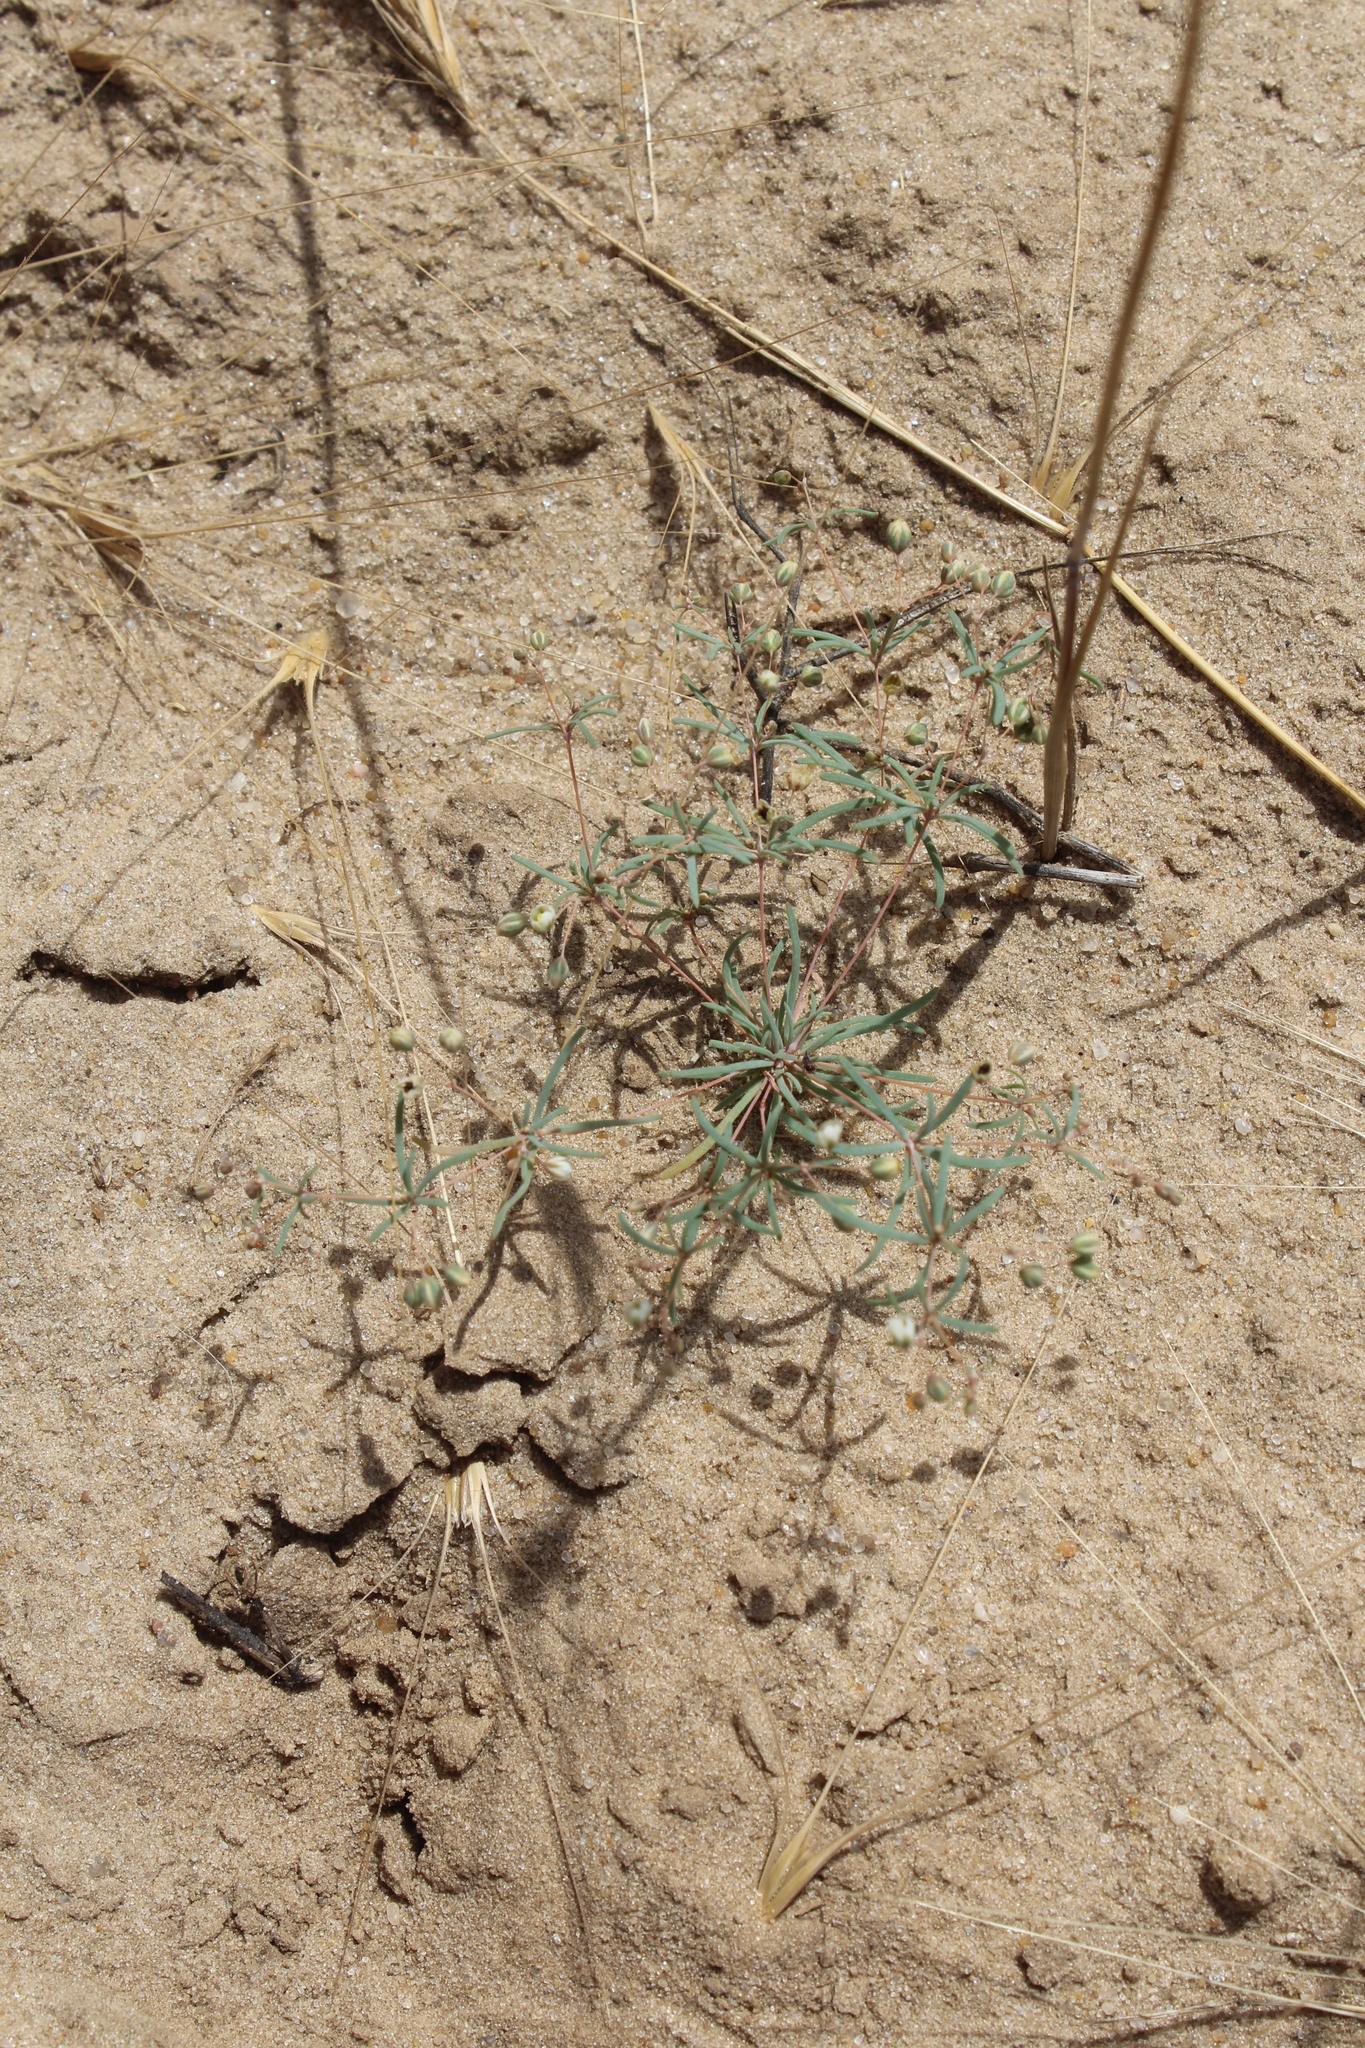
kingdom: Plantae
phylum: Tracheophyta
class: Magnoliopsida
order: Caryophyllales
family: Molluginaceae
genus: Hypertelis
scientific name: Hypertelis cerviana
